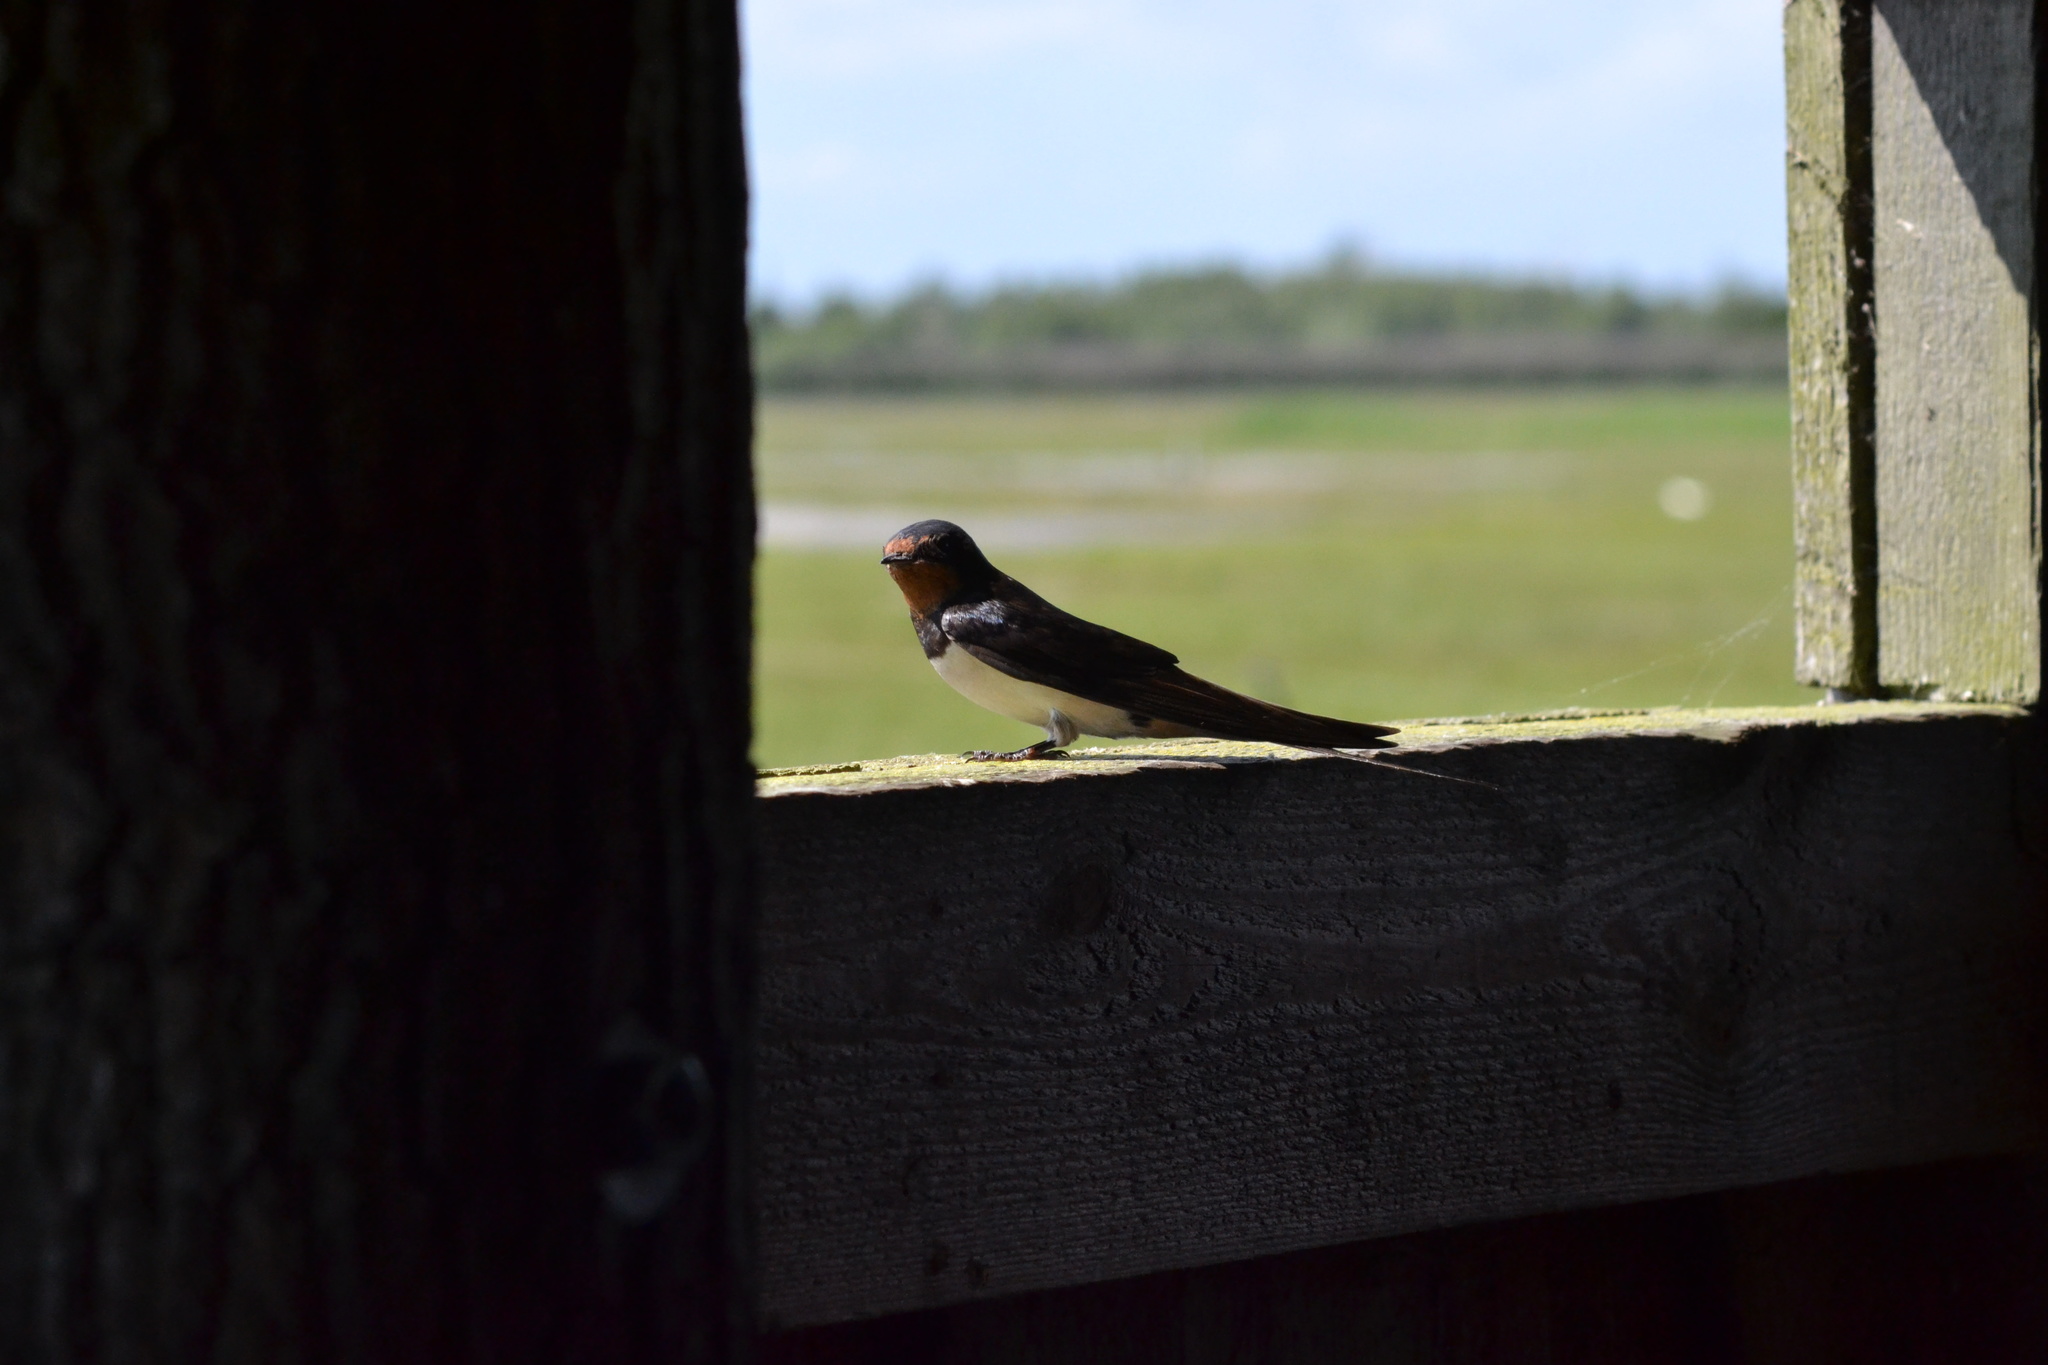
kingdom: Animalia
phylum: Chordata
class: Aves
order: Passeriformes
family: Hirundinidae
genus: Hirundo
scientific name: Hirundo rustica
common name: Barn swallow
